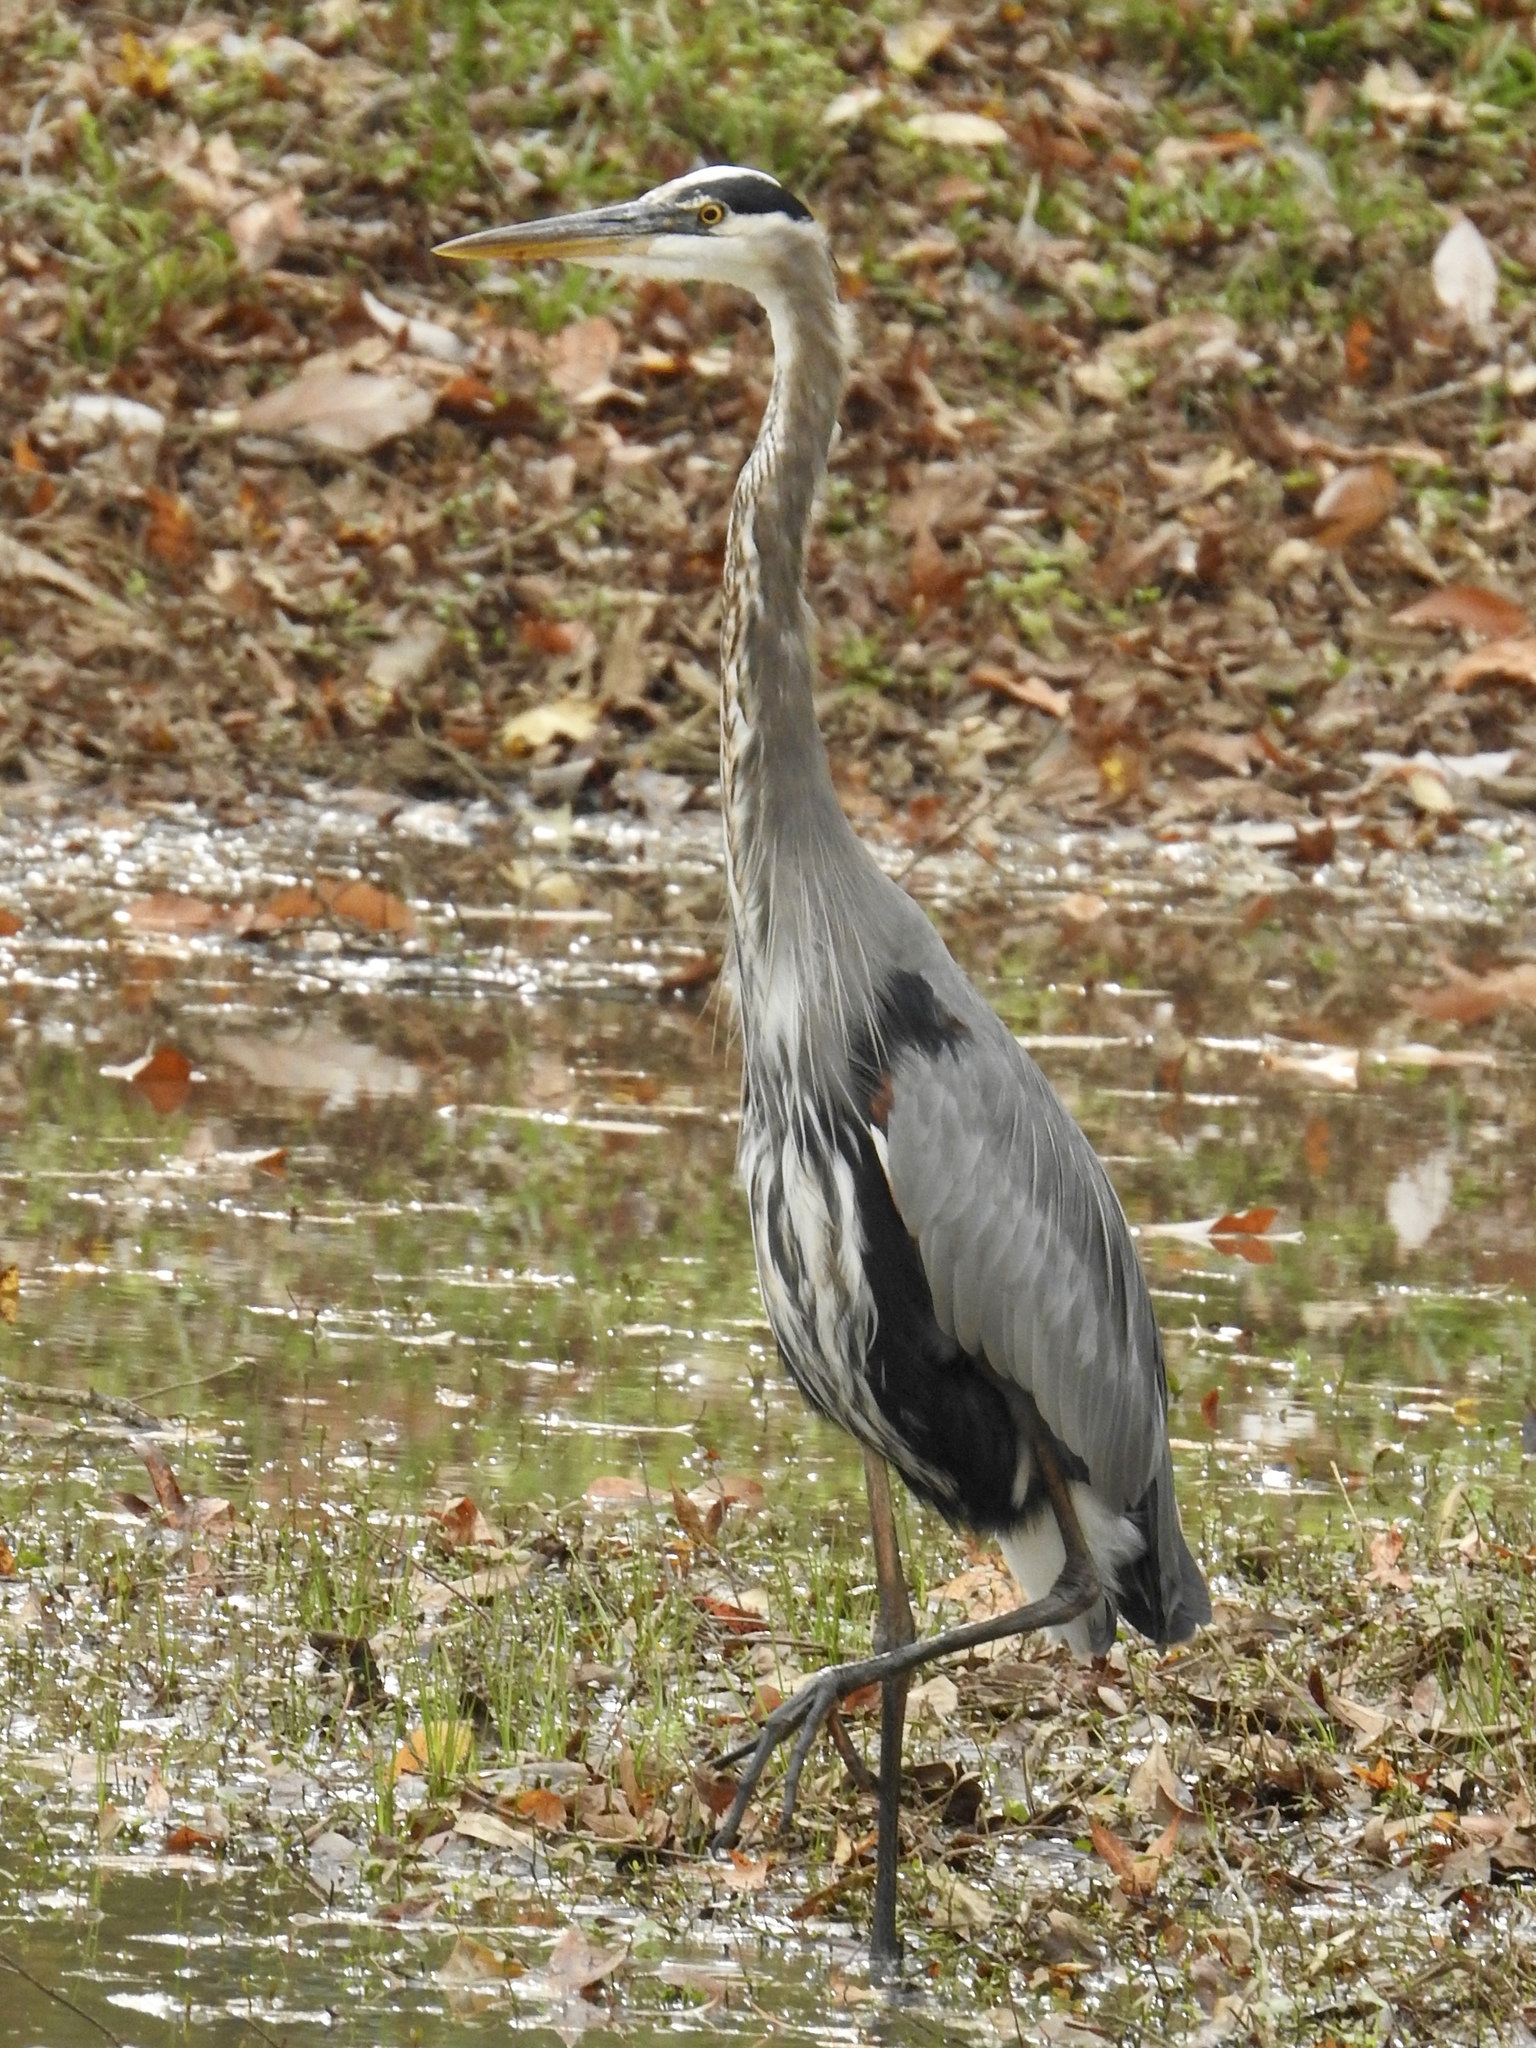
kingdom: Animalia
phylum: Chordata
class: Aves
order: Pelecaniformes
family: Ardeidae
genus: Ardea
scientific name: Ardea herodias
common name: Great blue heron
